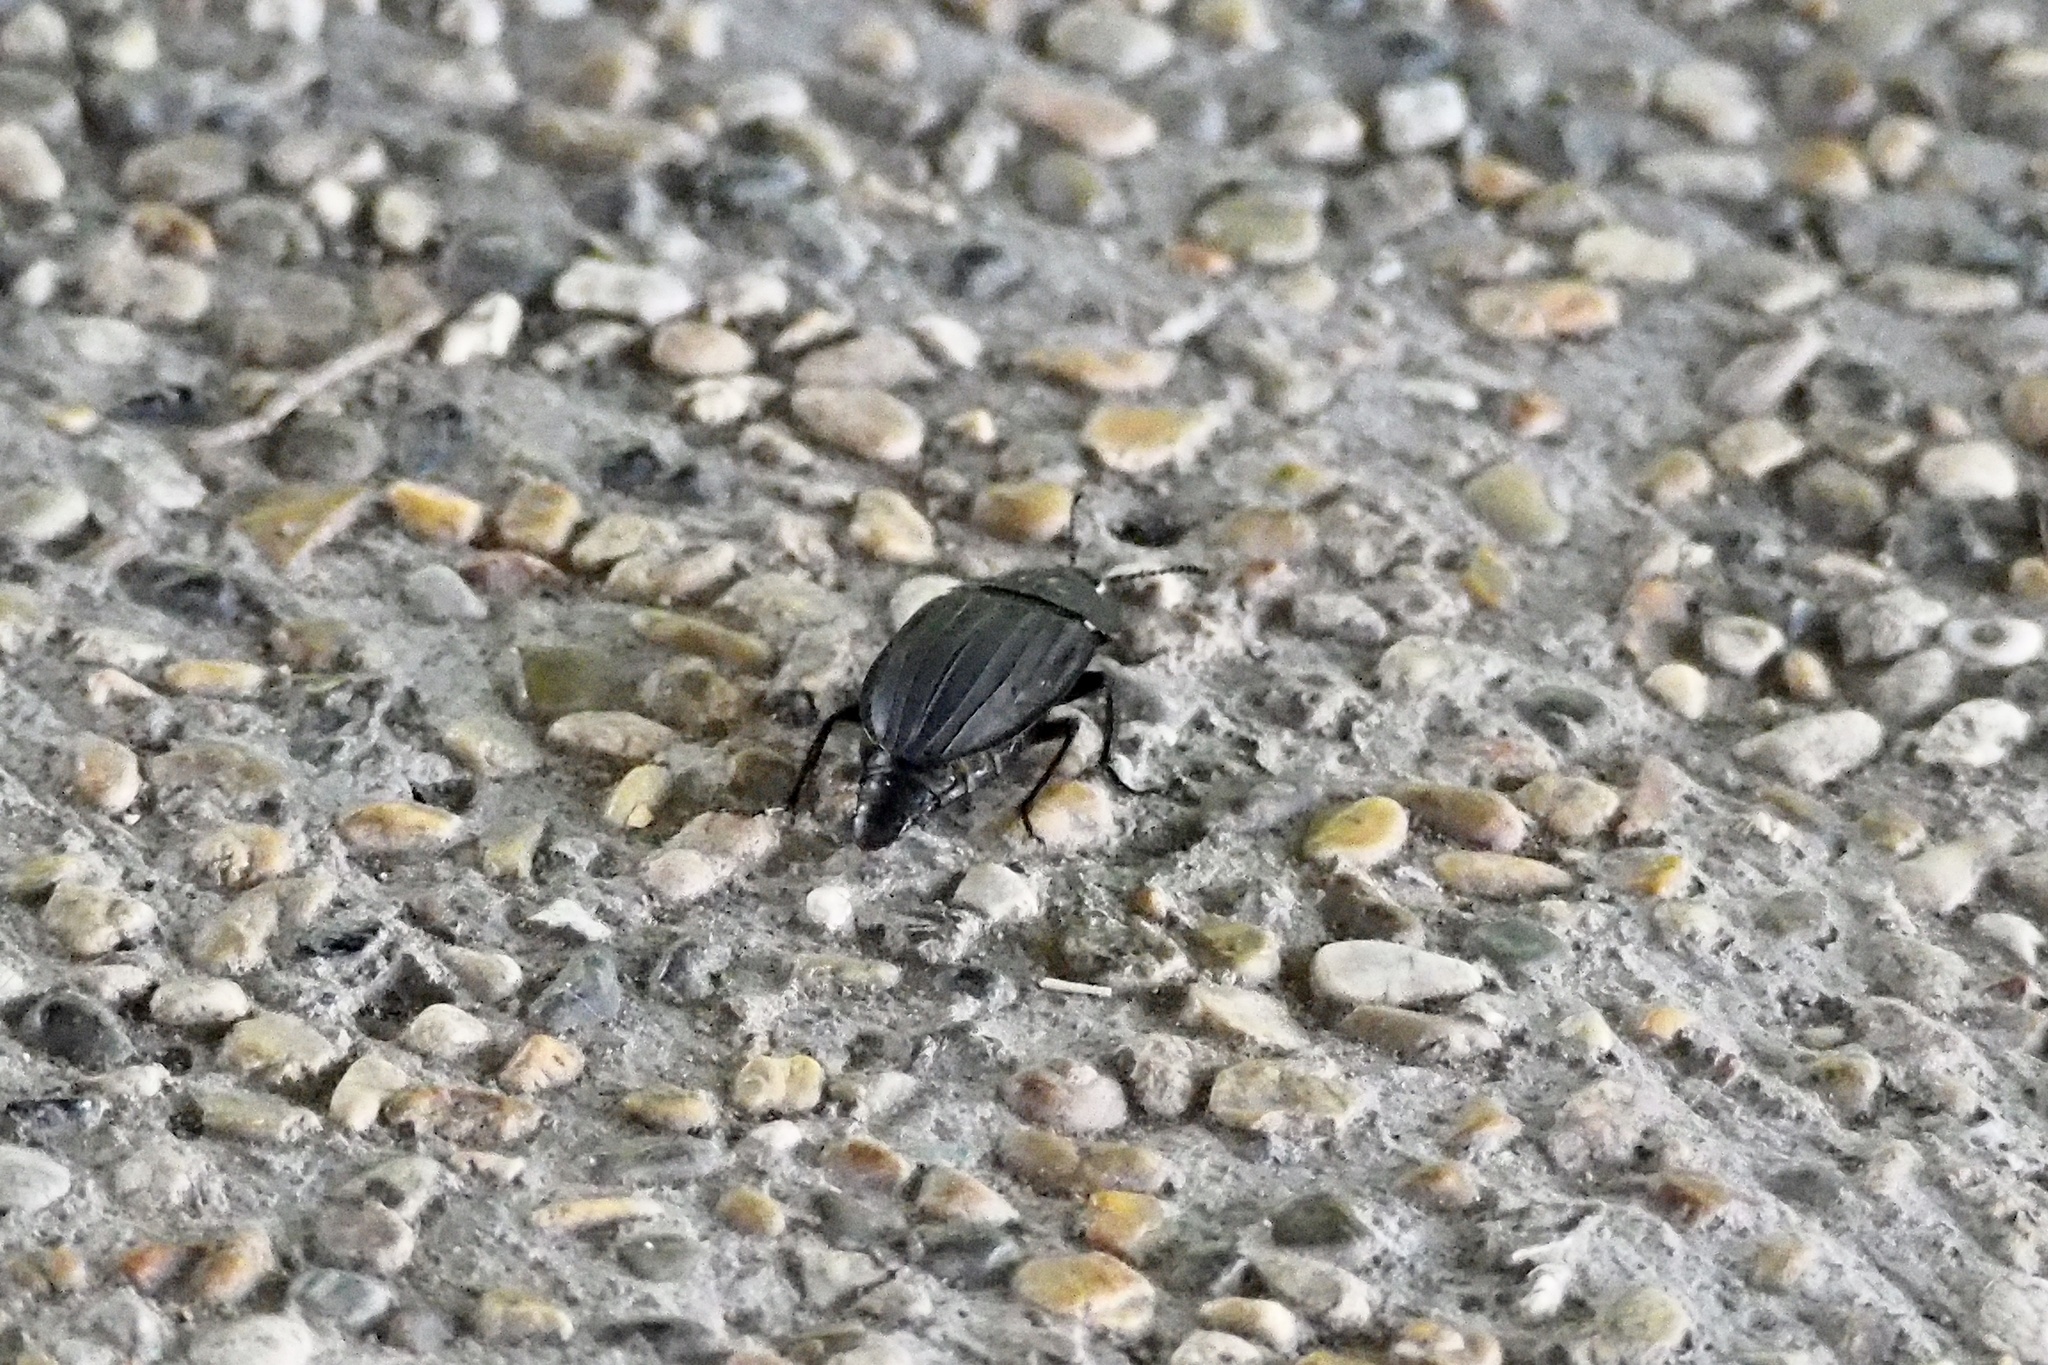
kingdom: Animalia
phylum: Arthropoda
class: Insecta
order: Coleoptera
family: Staphylinidae
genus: Necrophila
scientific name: Necrophila japonica
